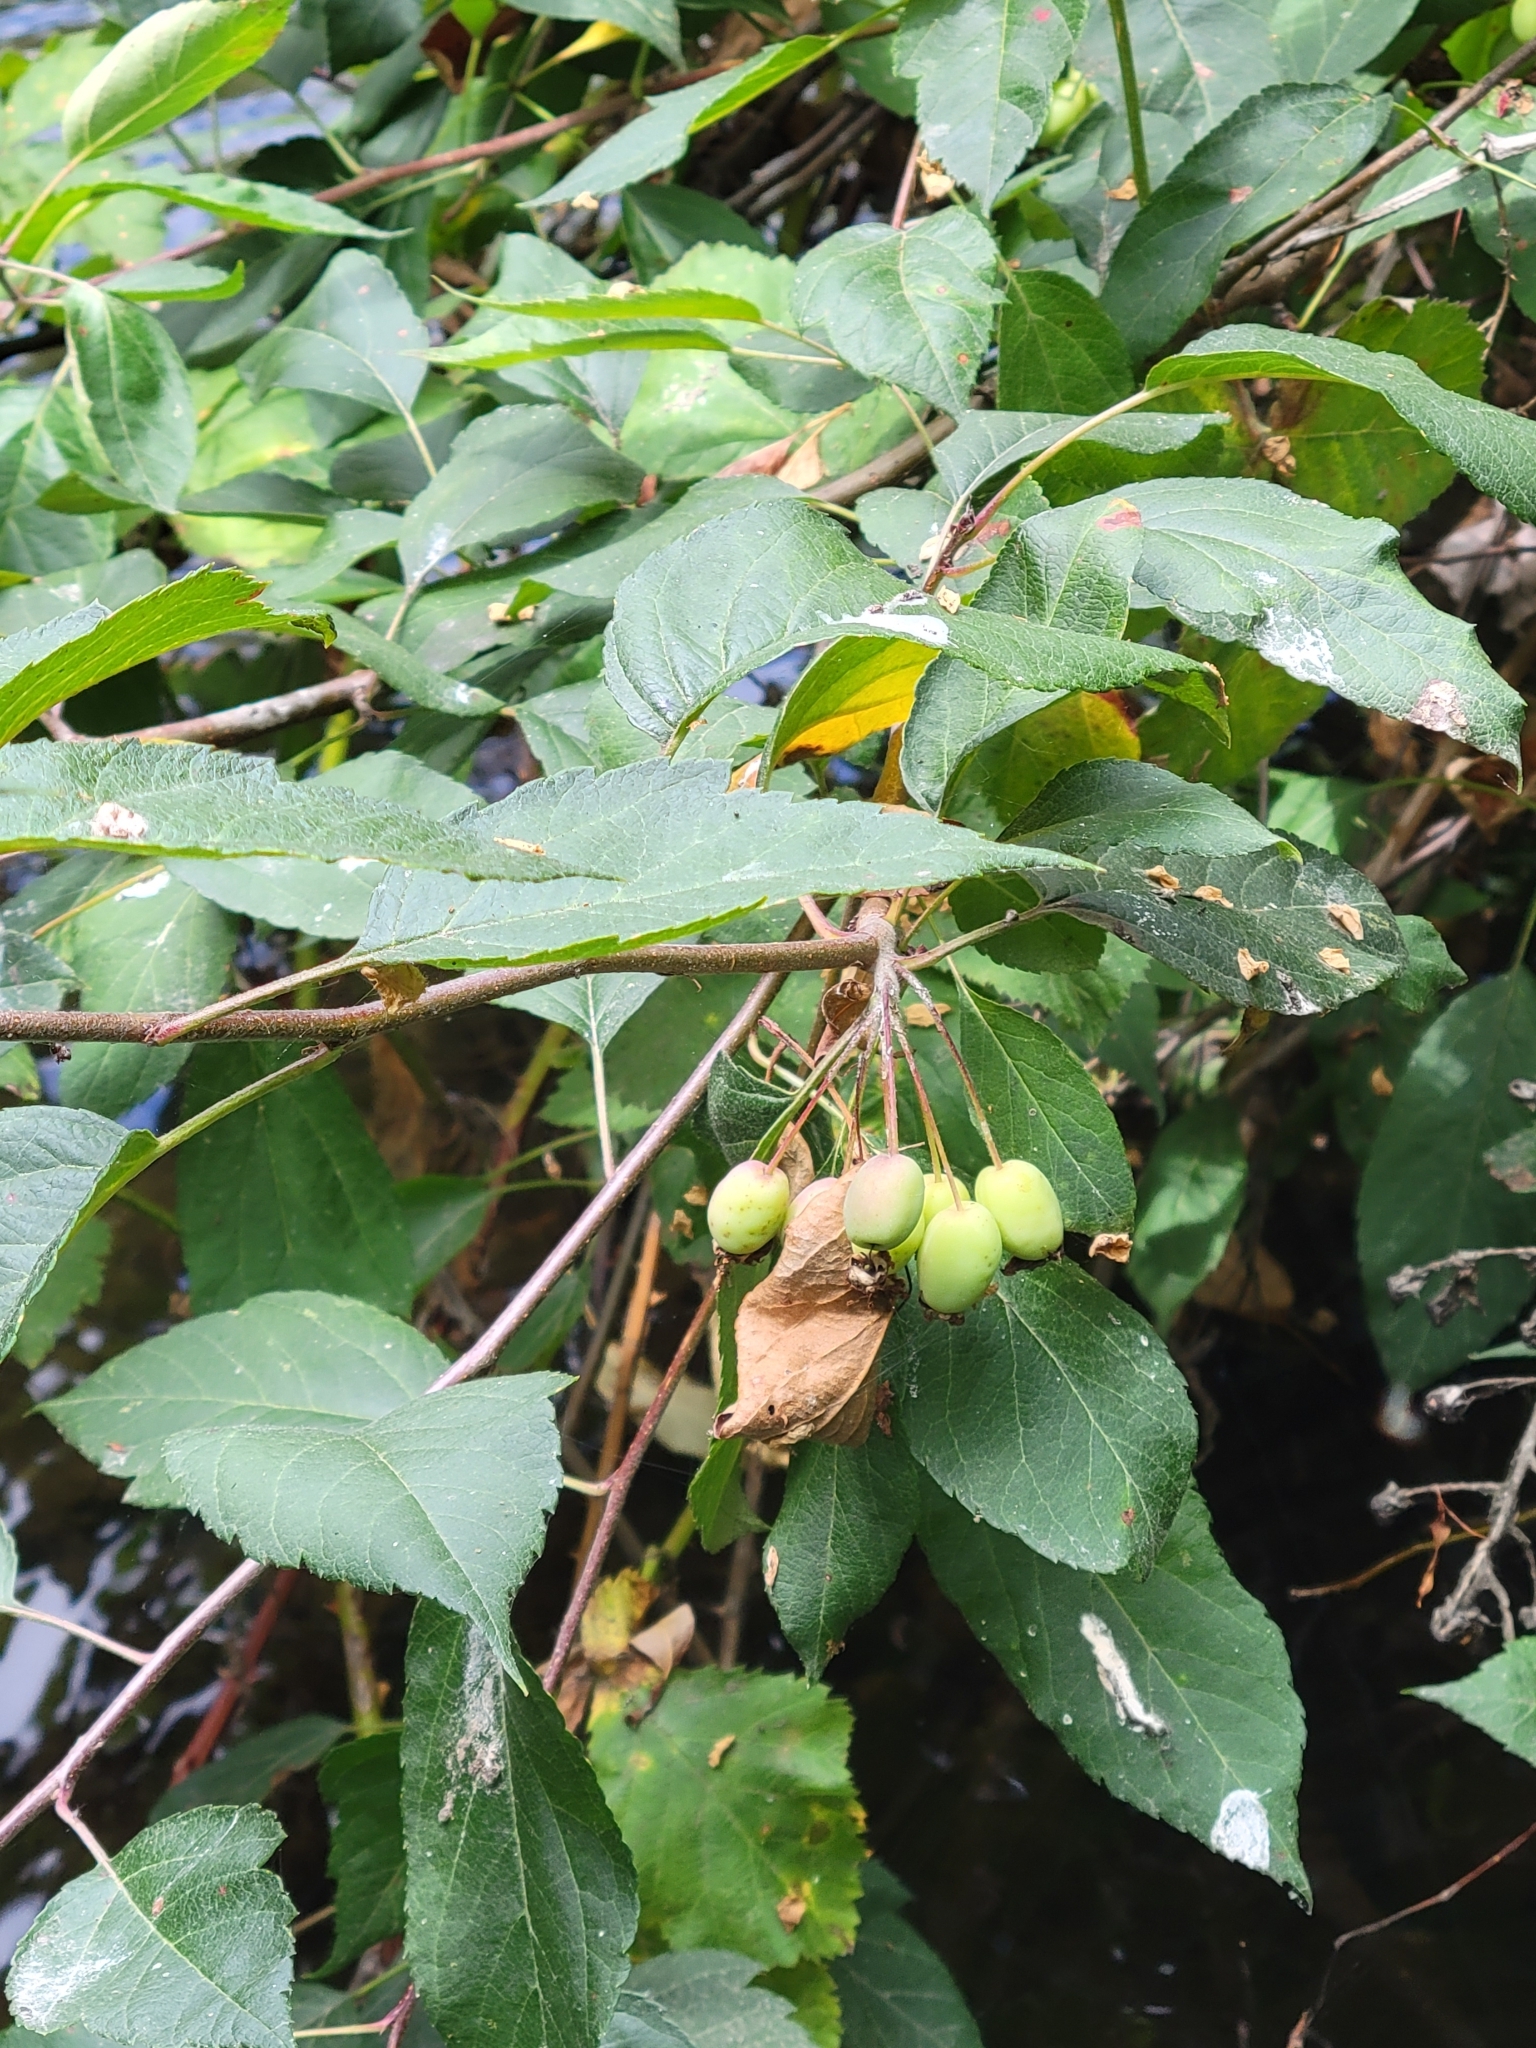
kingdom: Plantae
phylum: Tracheophyta
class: Magnoliopsida
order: Rosales
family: Rosaceae
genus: Malus
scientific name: Malus fusca
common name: Oregon crab apple
